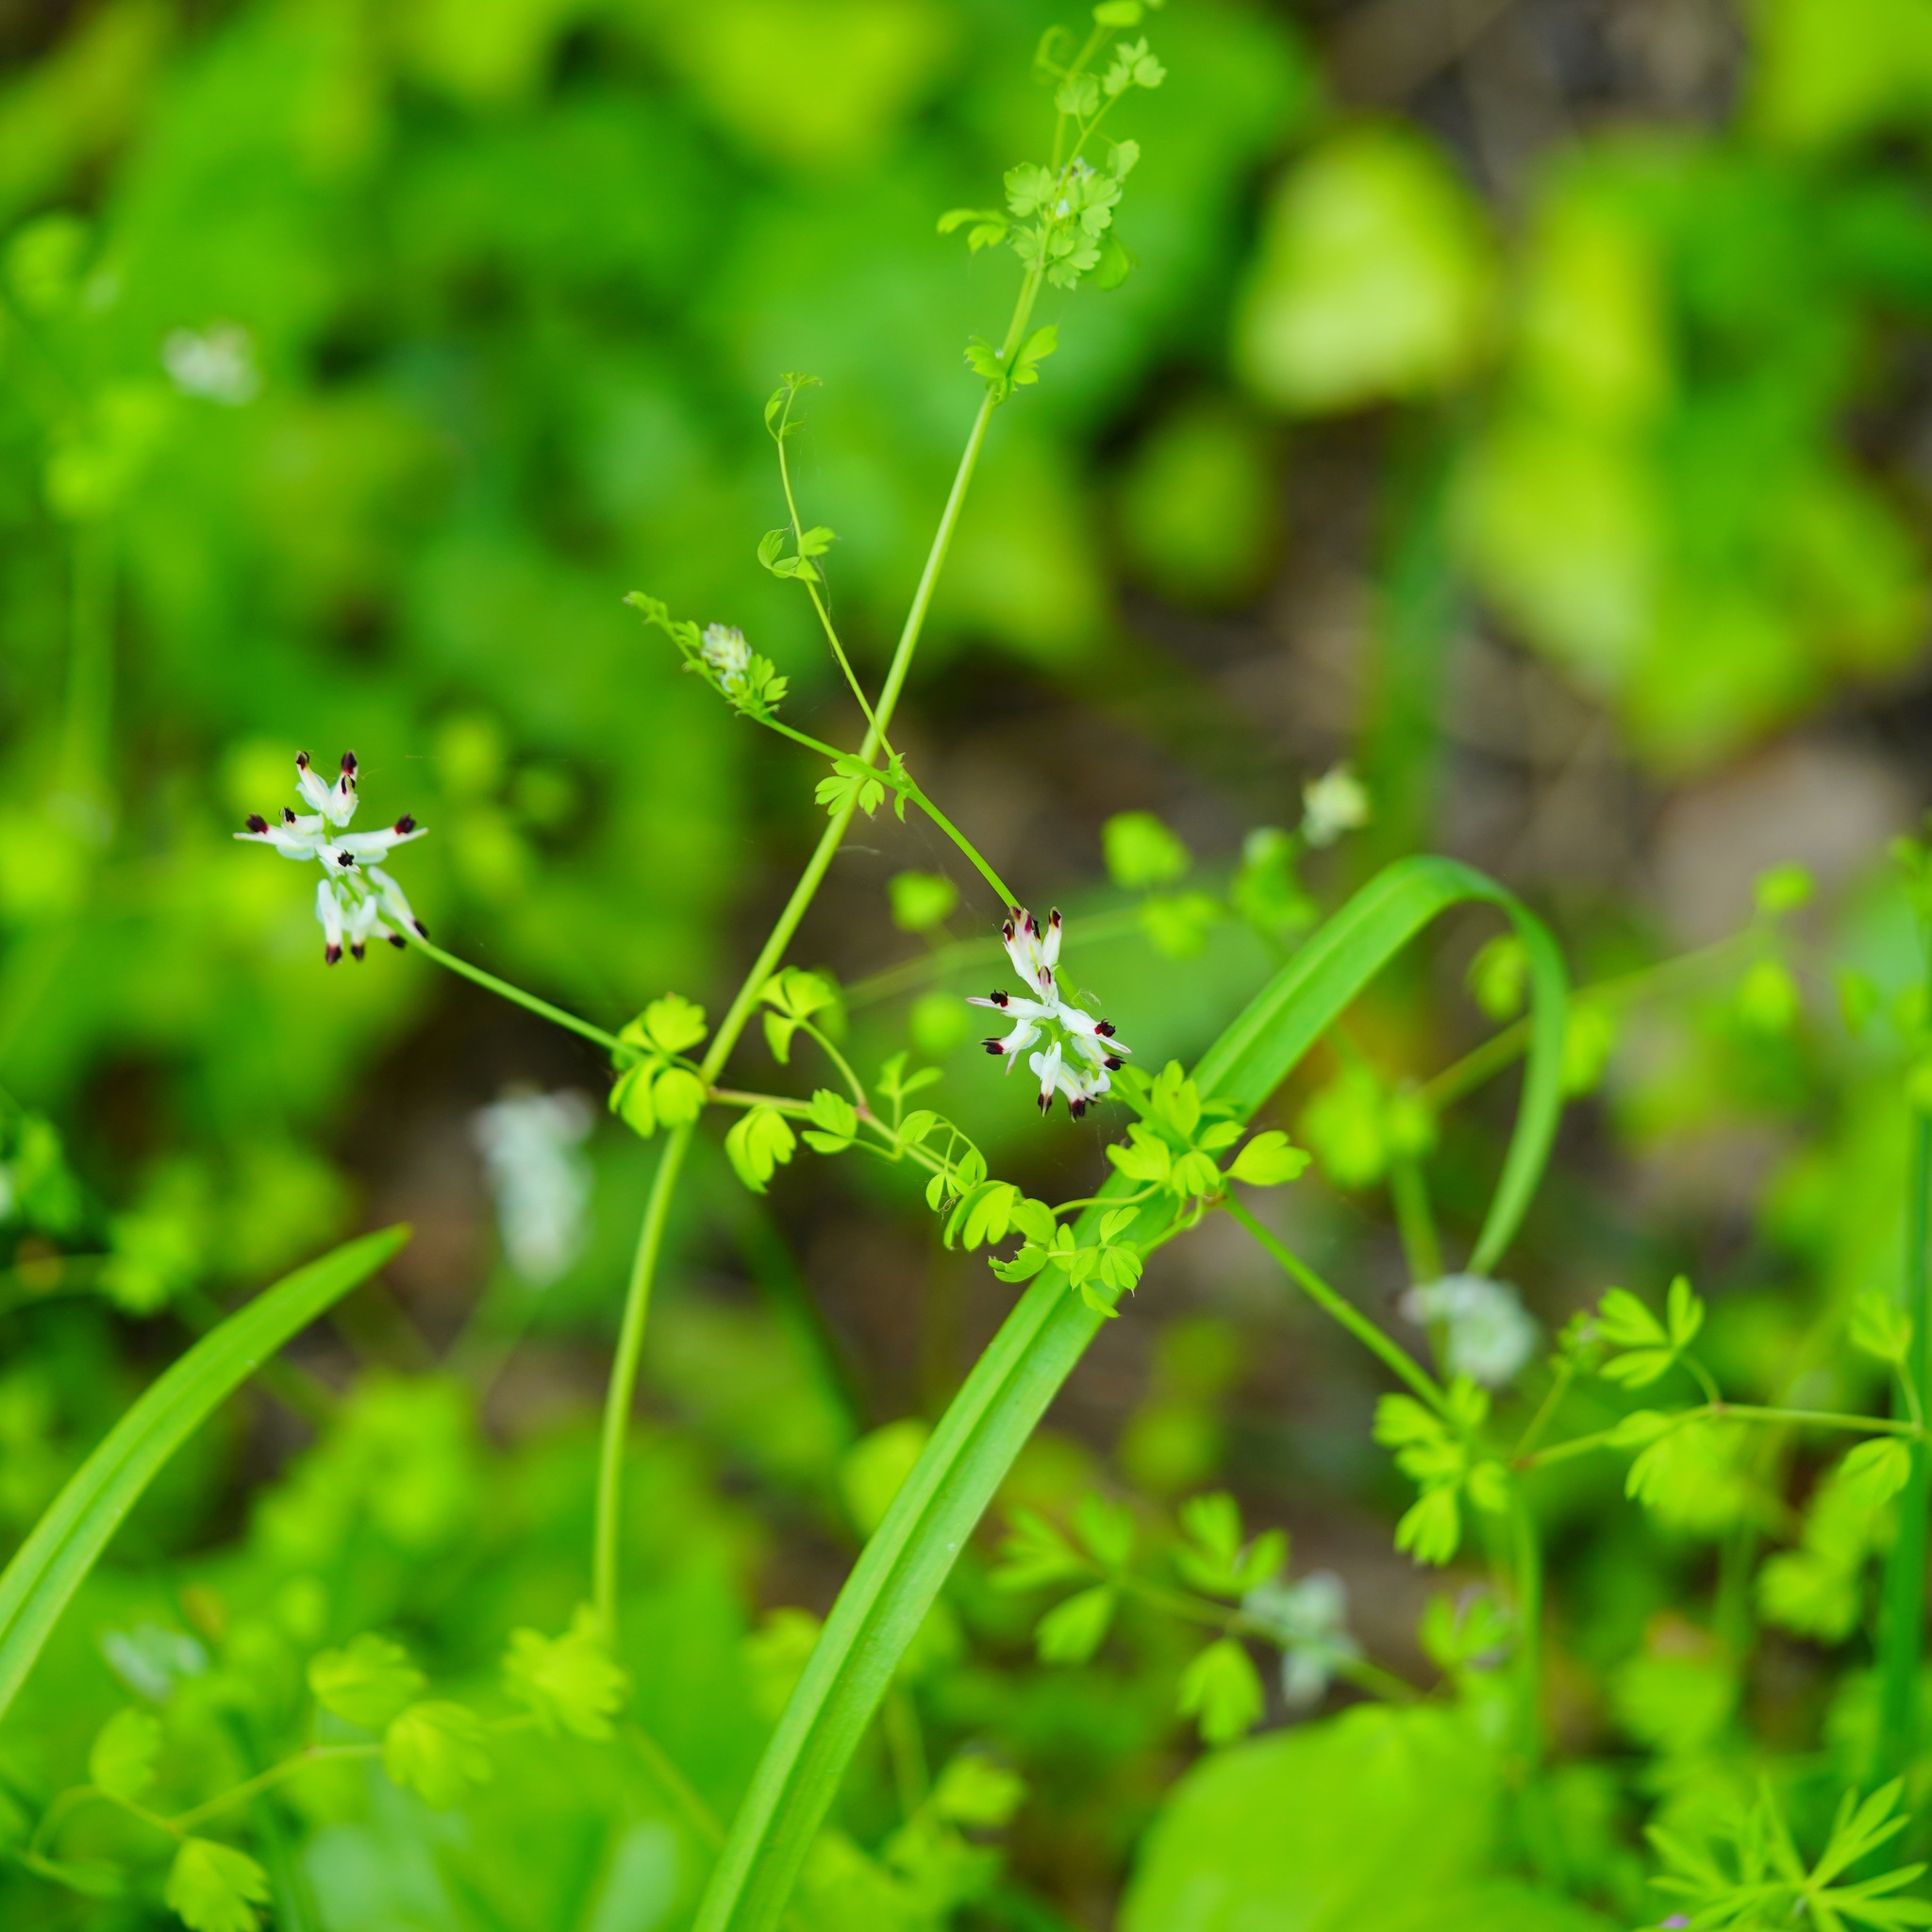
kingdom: Plantae
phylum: Tracheophyta
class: Magnoliopsida
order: Ranunculales
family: Papaveraceae
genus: Fumaria
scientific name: Fumaria capreolata
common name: White ramping-fumitory
